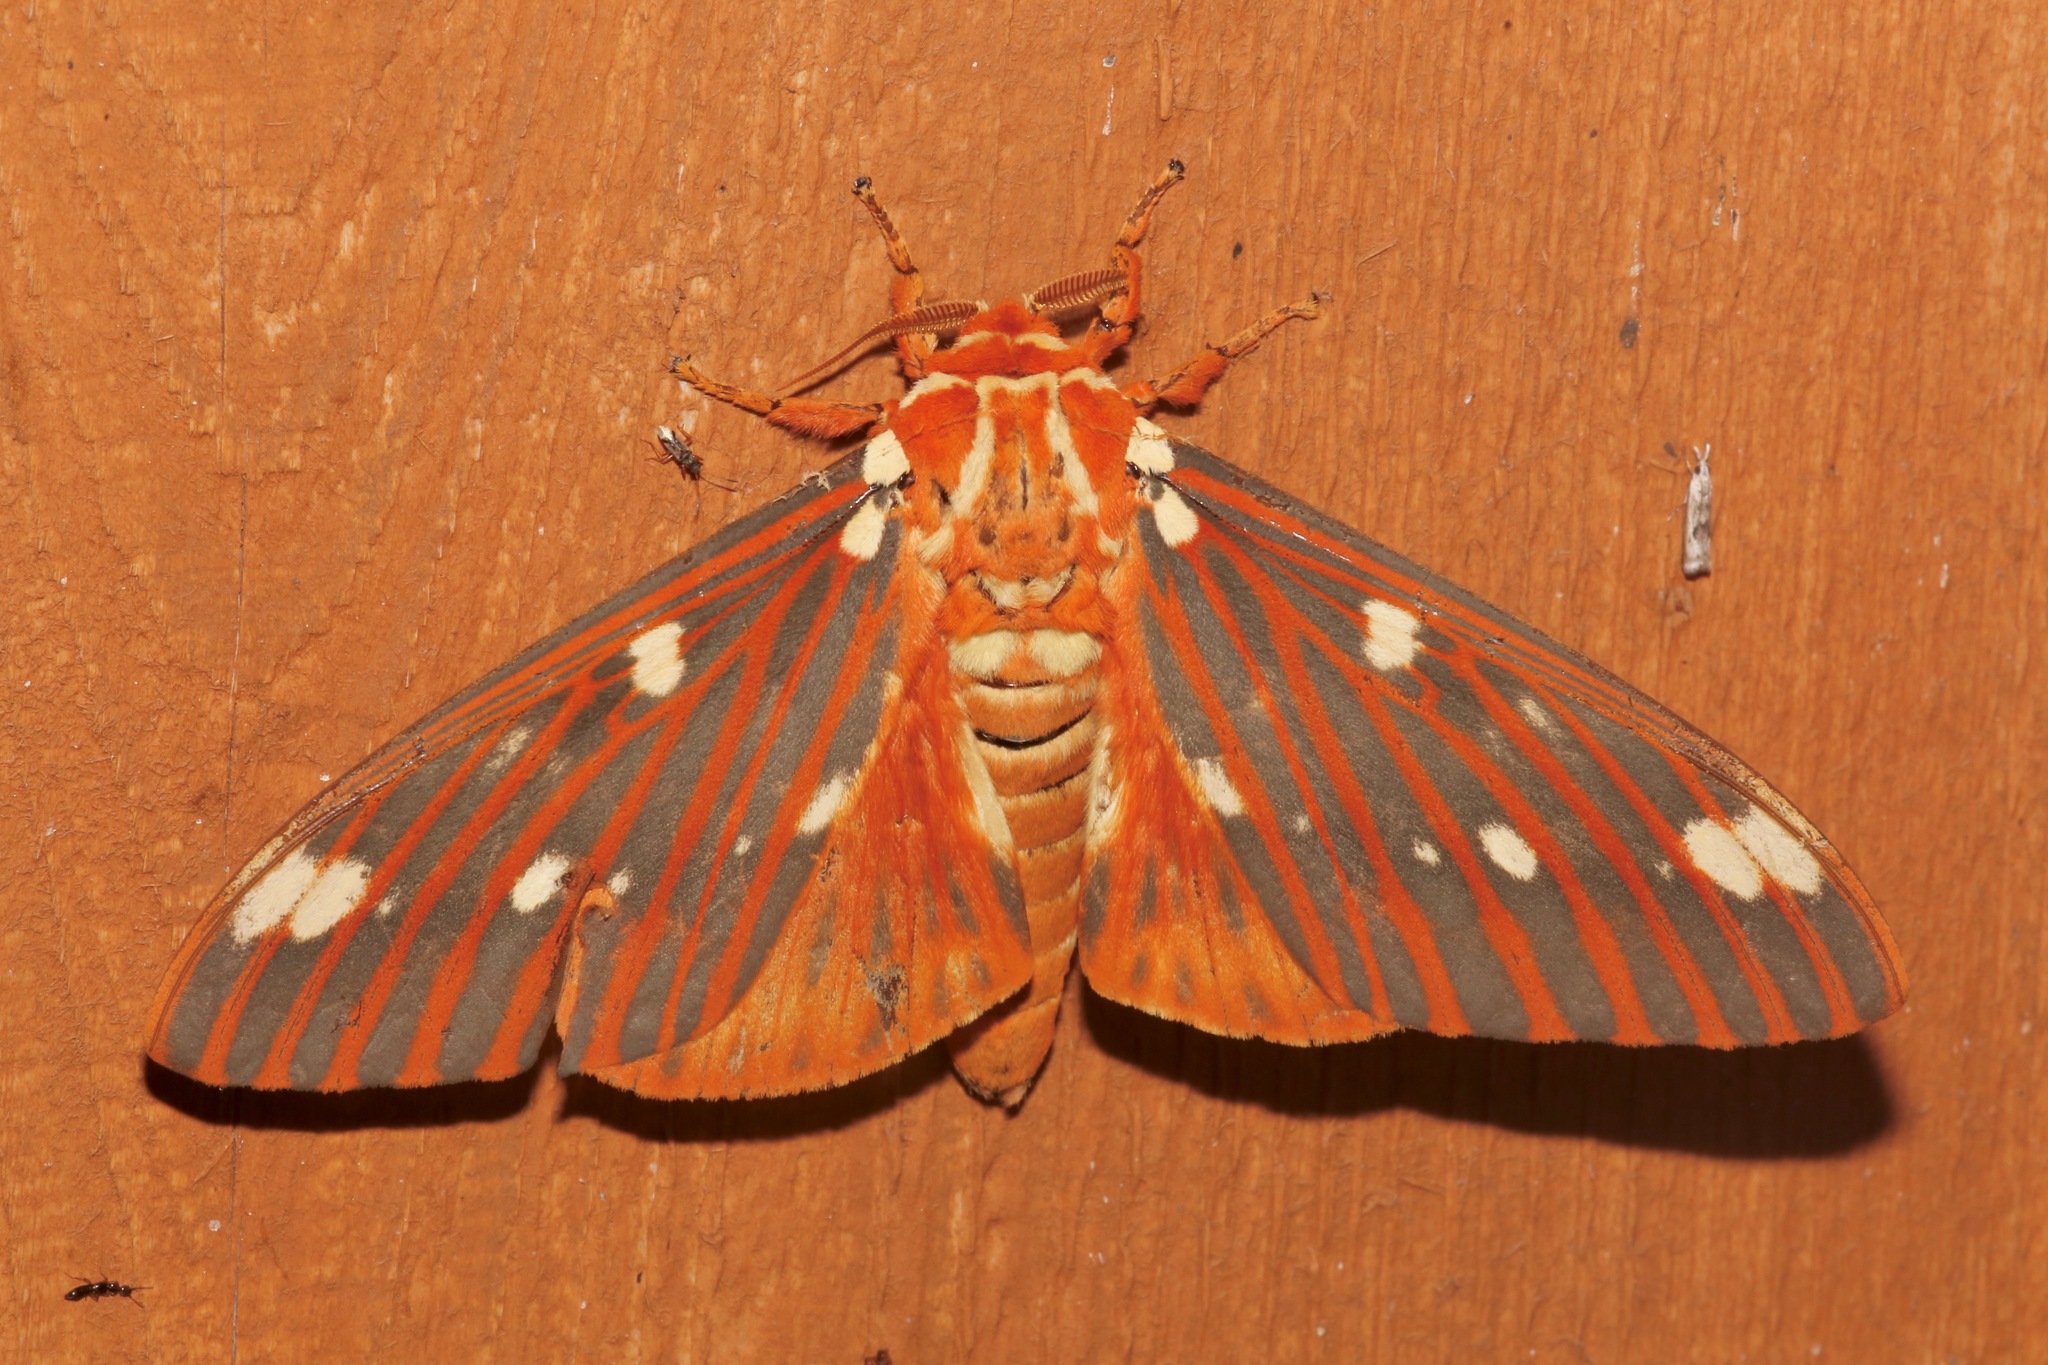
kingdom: Animalia
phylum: Arthropoda
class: Insecta
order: Lepidoptera
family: Saturniidae
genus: Citheronia
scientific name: Citheronia regalis
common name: Hickory horned devil
